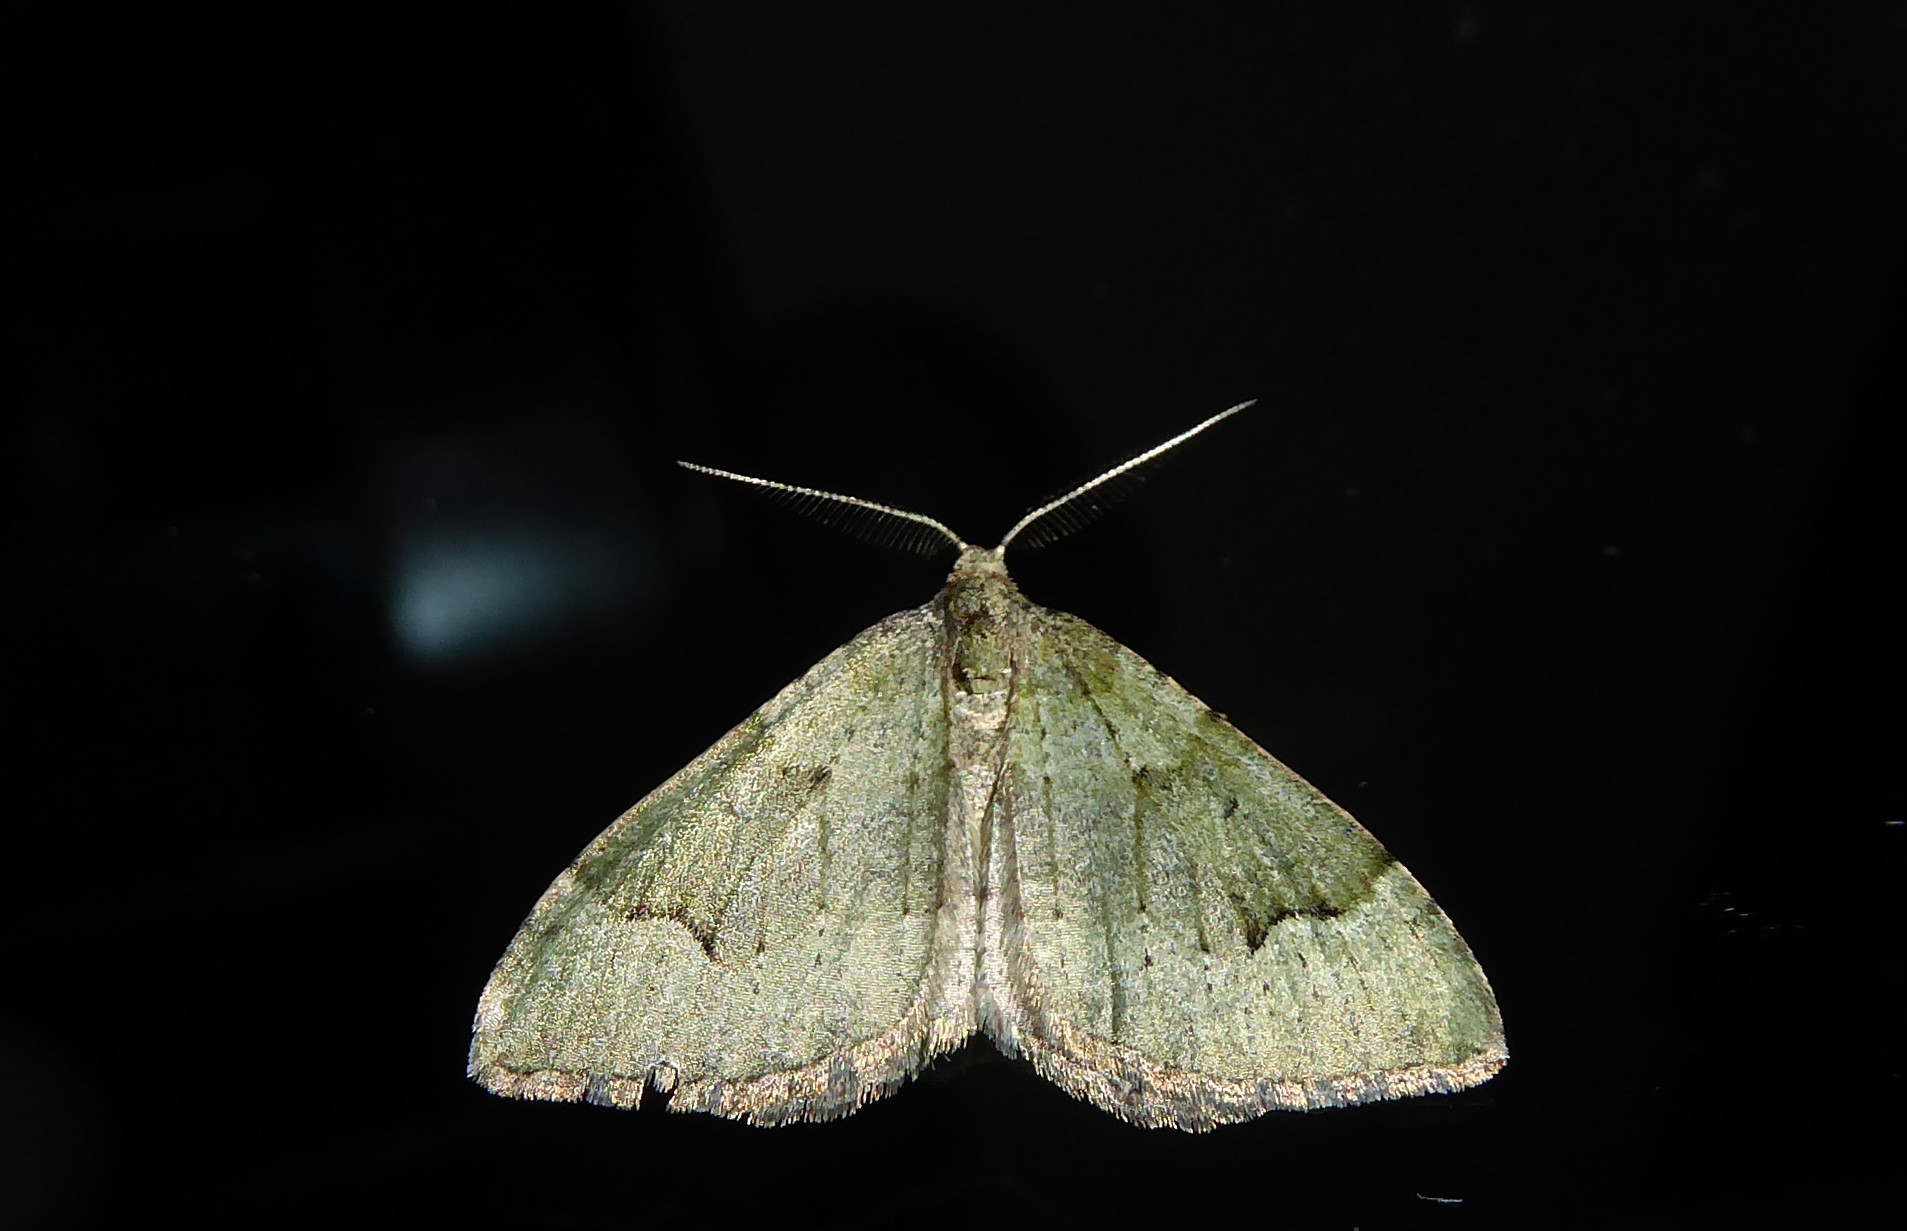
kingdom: Animalia
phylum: Arthropoda
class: Insecta
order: Lepidoptera
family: Geometridae
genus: Epyaxa
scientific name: Epyaxa rosearia
